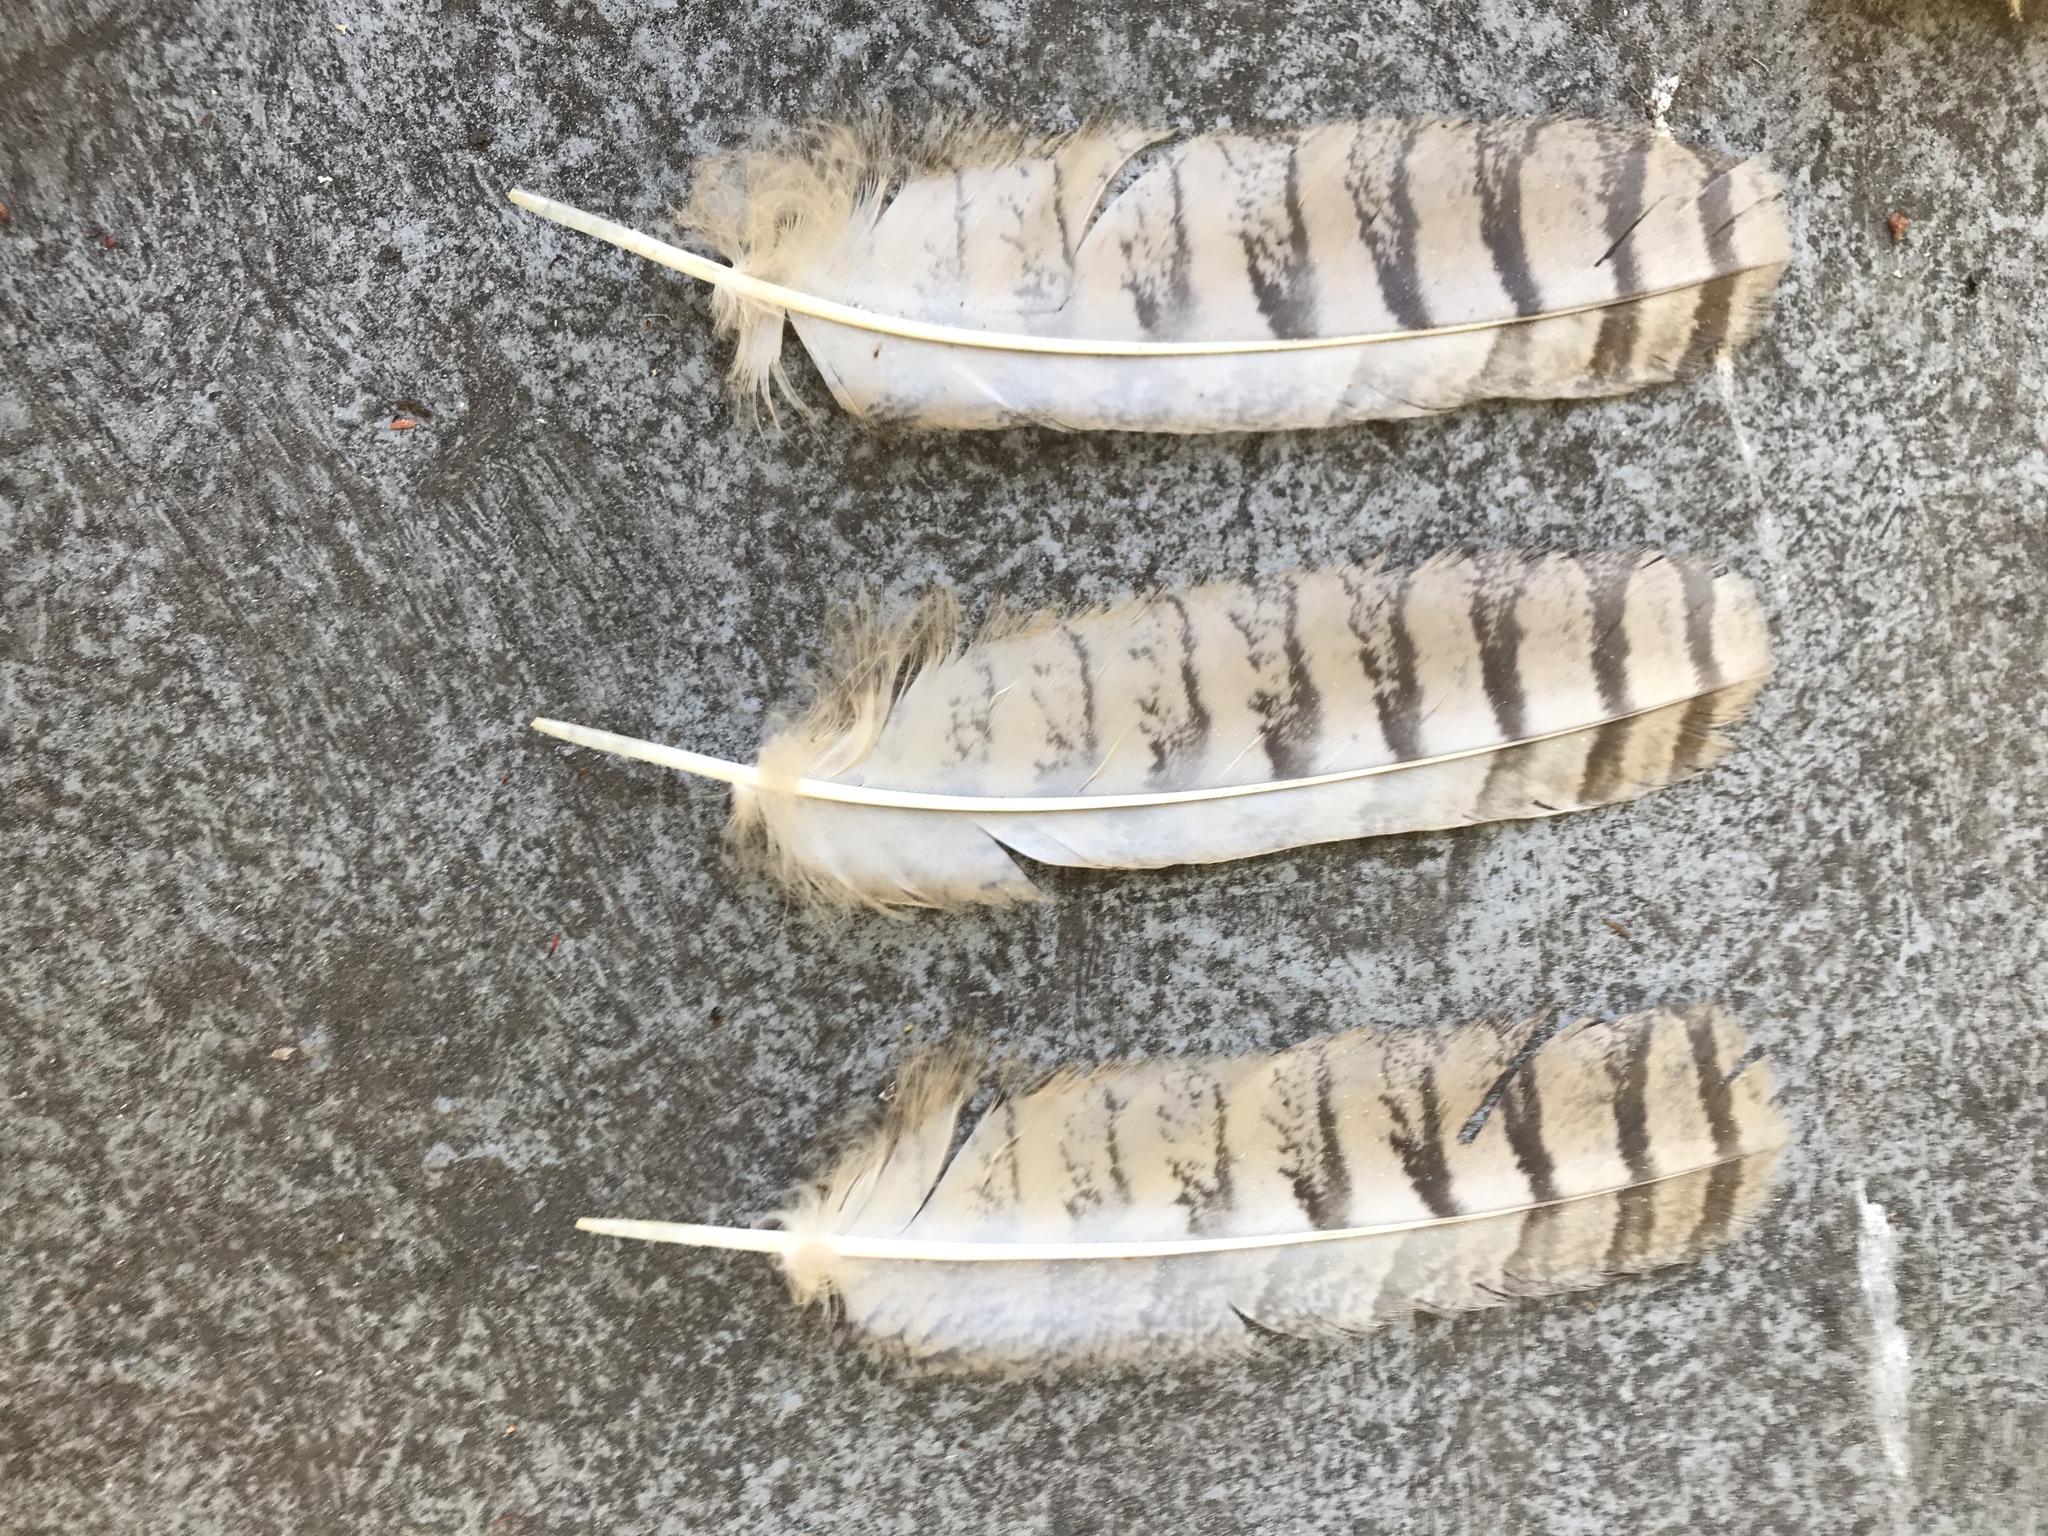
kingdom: Animalia
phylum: Chordata
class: Aves
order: Strigiformes
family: Strigidae
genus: Bubo
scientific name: Bubo virginianus
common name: Great horned owl
